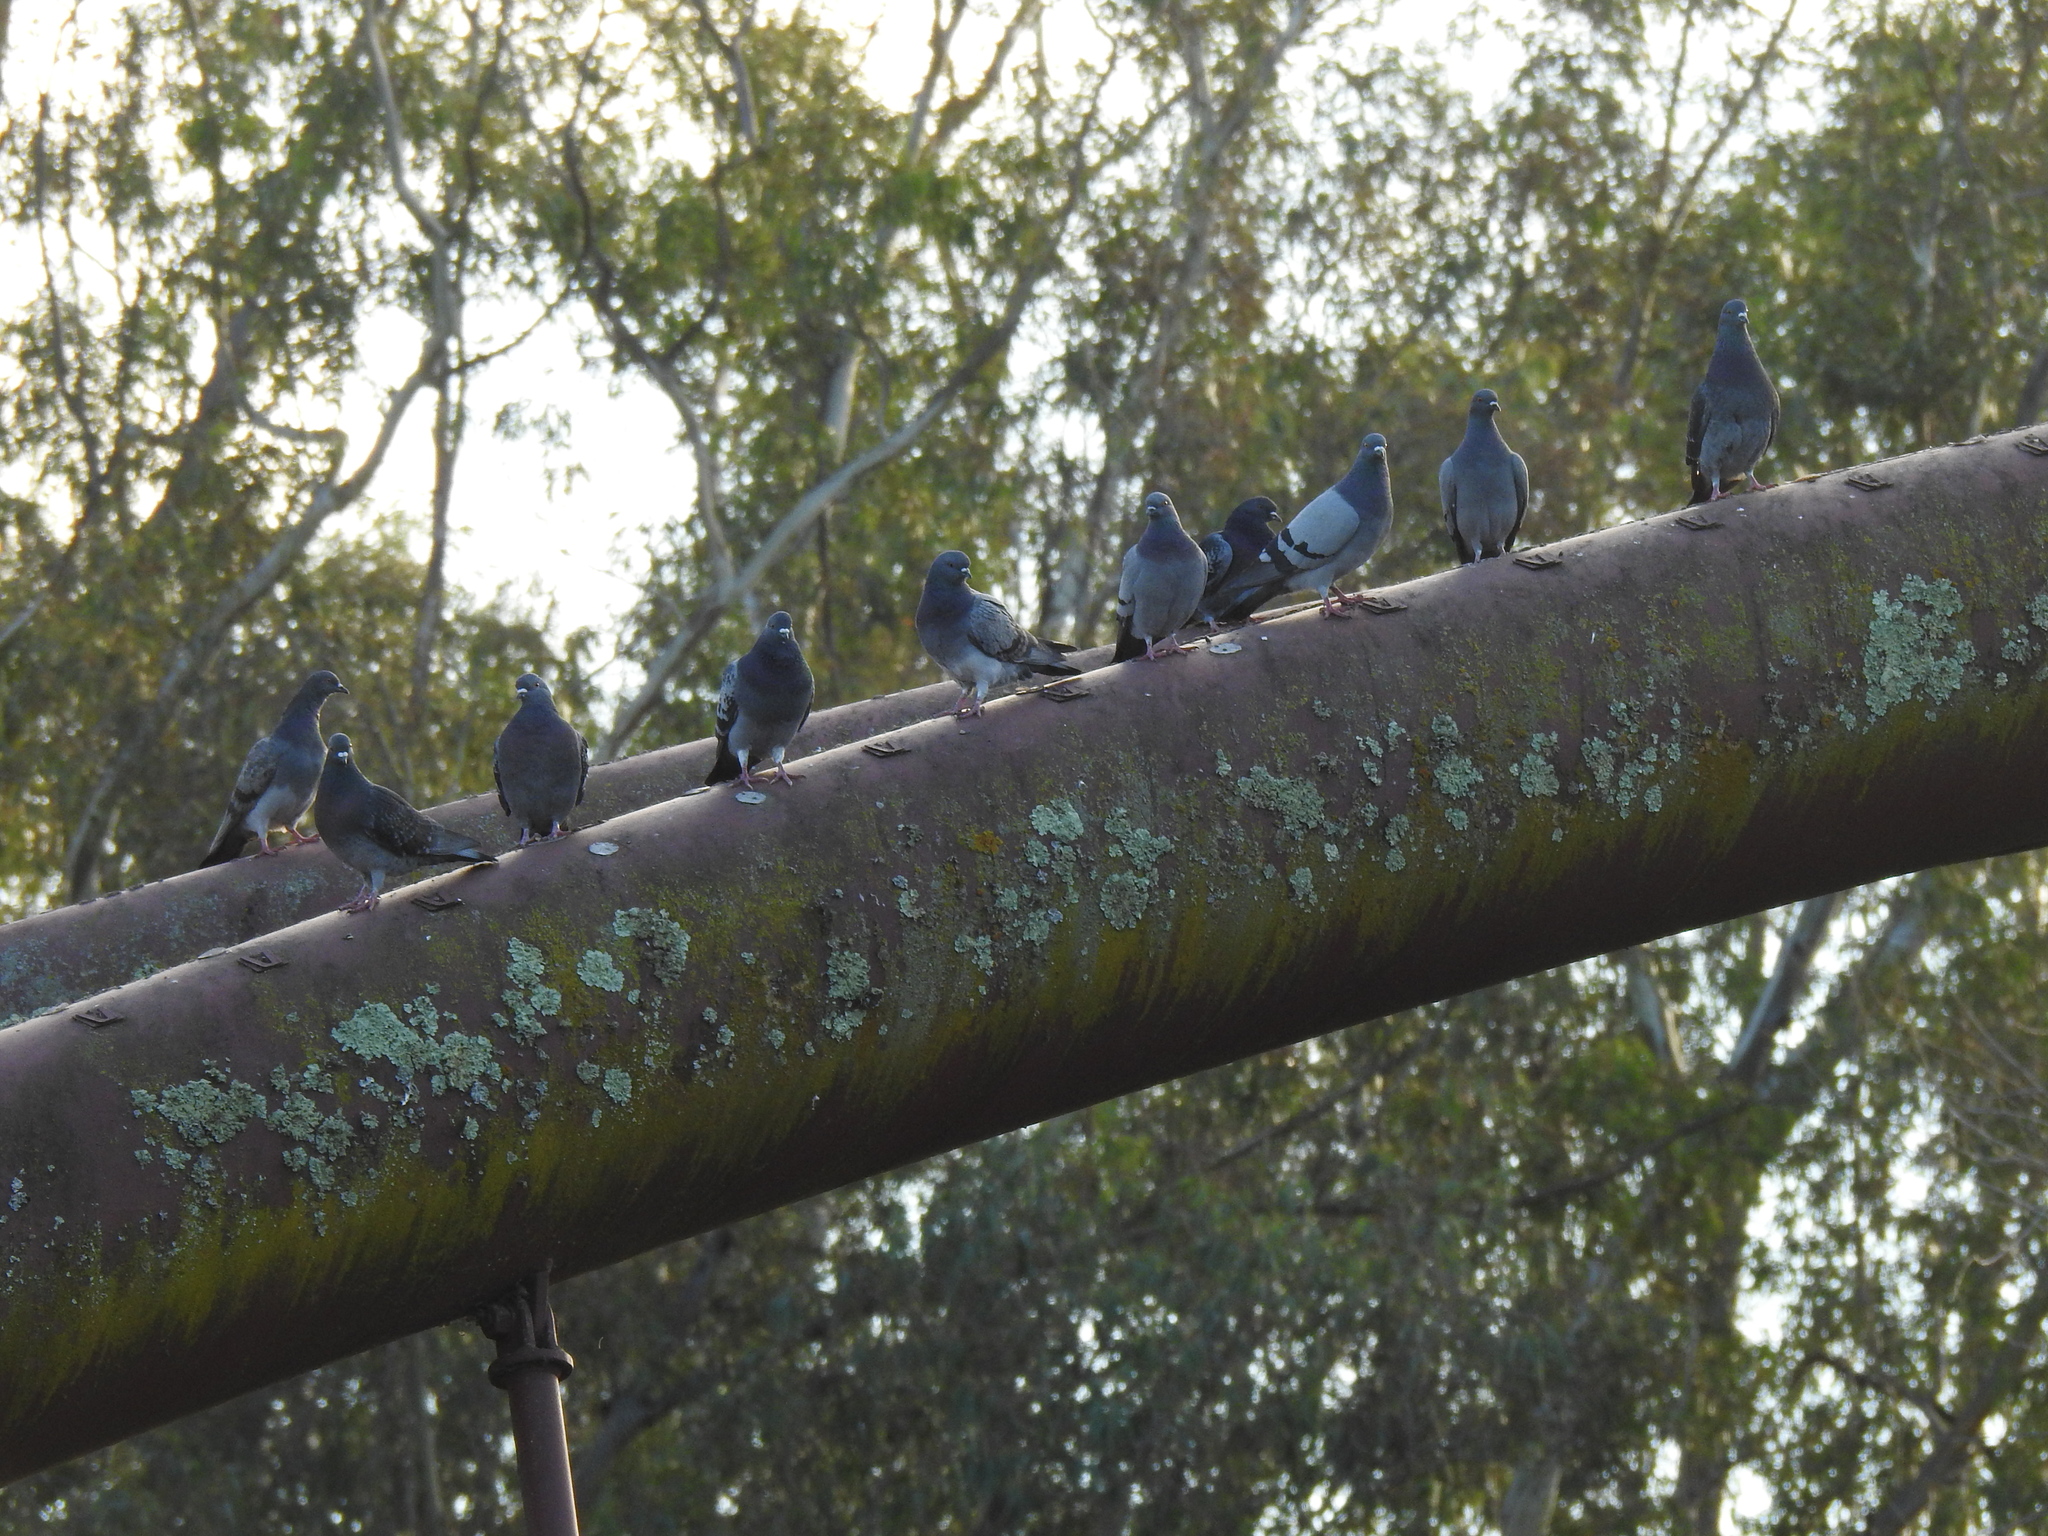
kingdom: Animalia
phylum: Chordata
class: Aves
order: Columbiformes
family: Columbidae
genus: Columba
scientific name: Columba livia
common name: Rock pigeon
